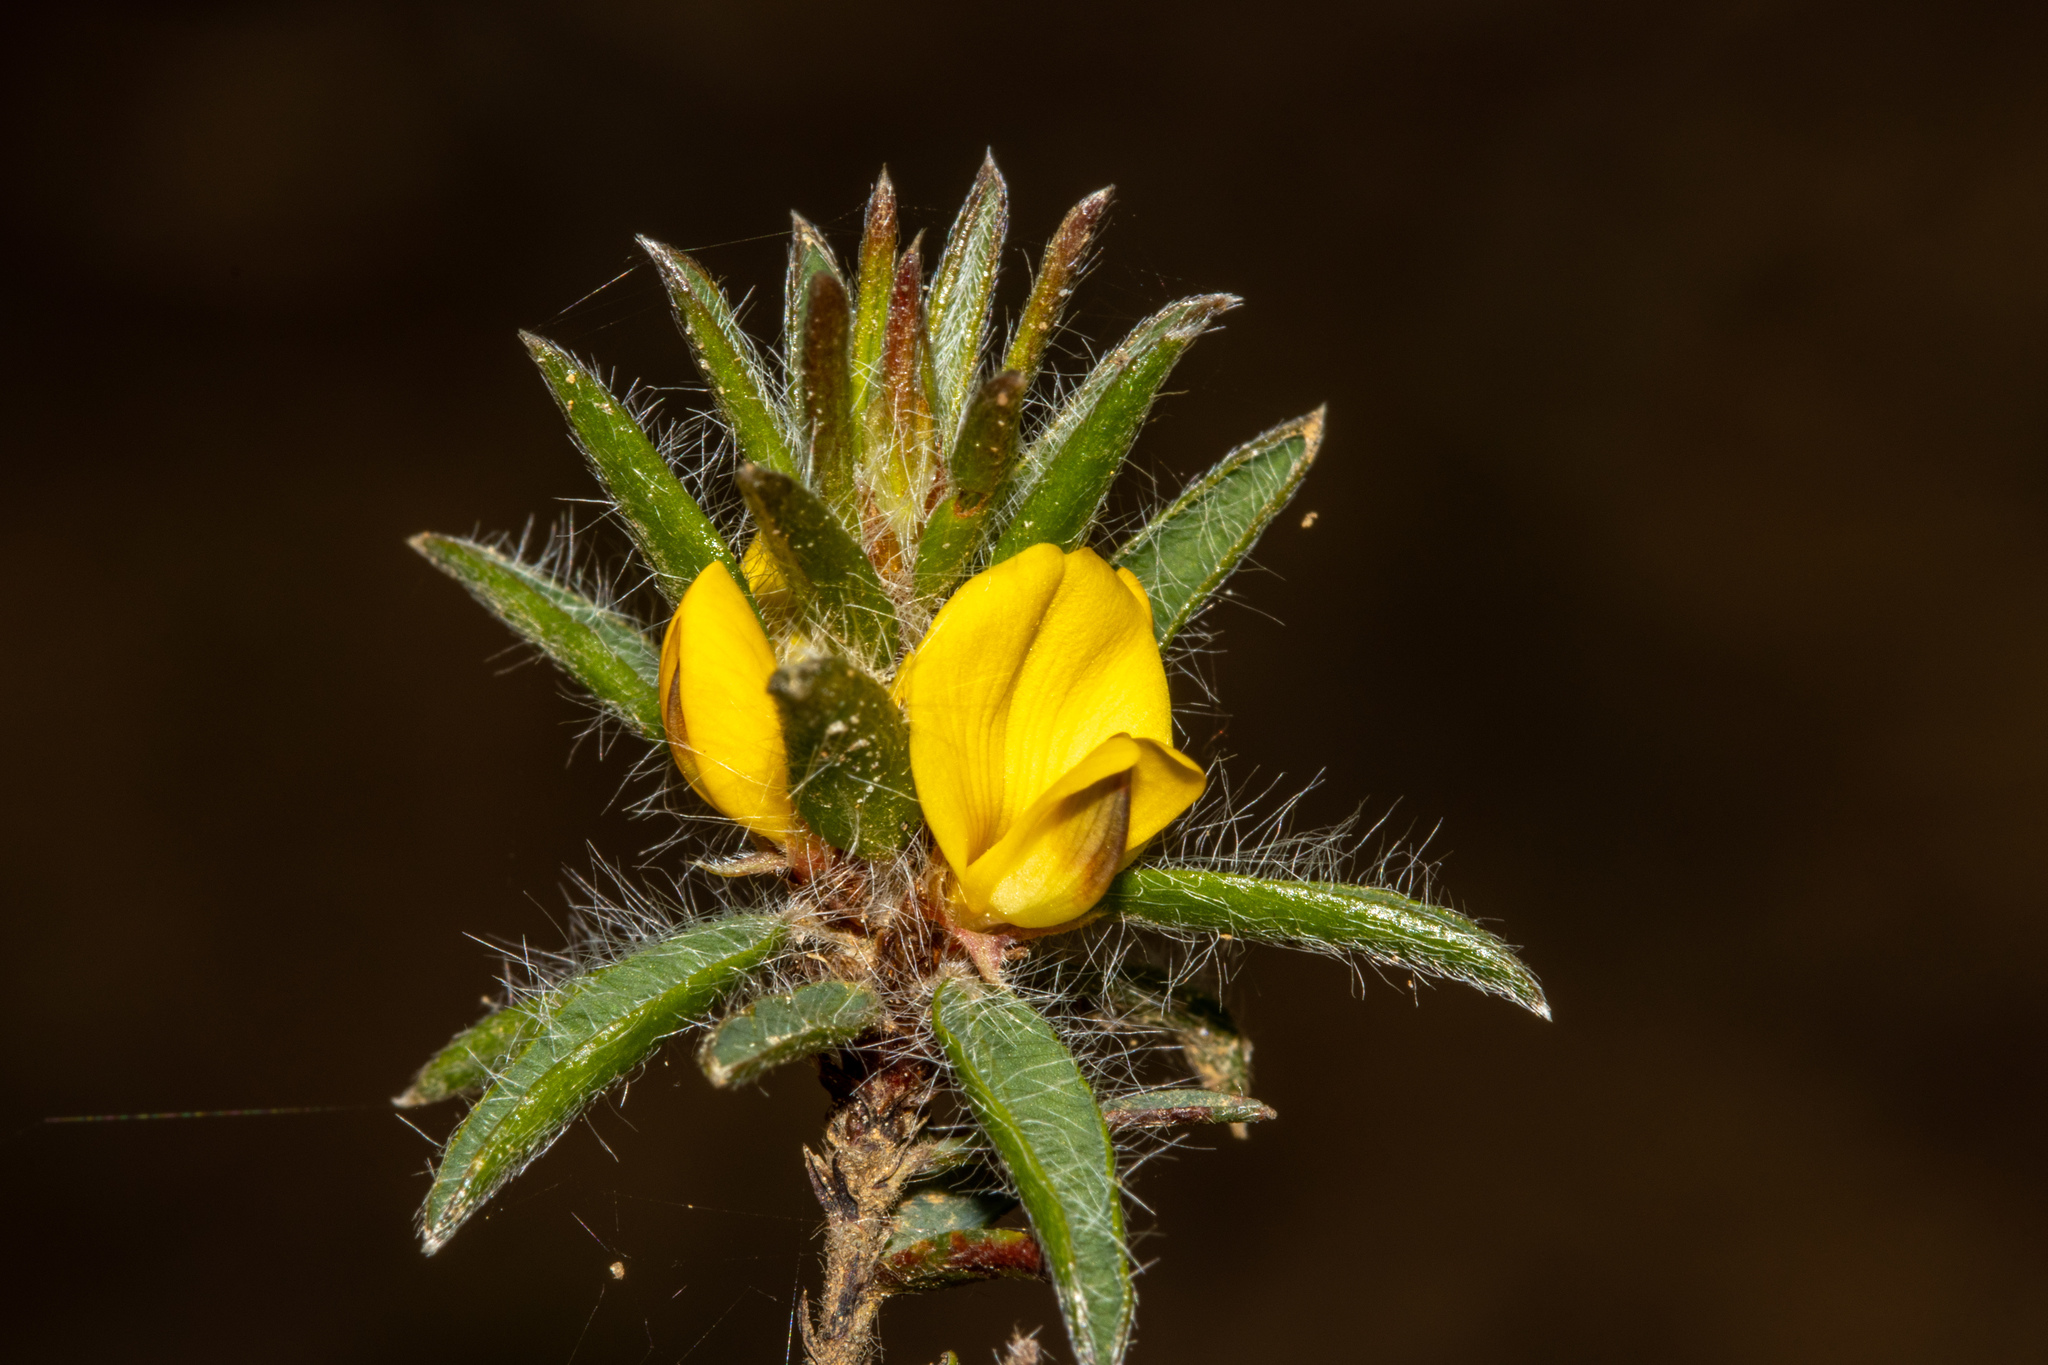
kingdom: Plantae
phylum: Tracheophyta
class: Magnoliopsida
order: Fabales
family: Fabaceae
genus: Pultenaea
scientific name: Pultenaea trinervis
